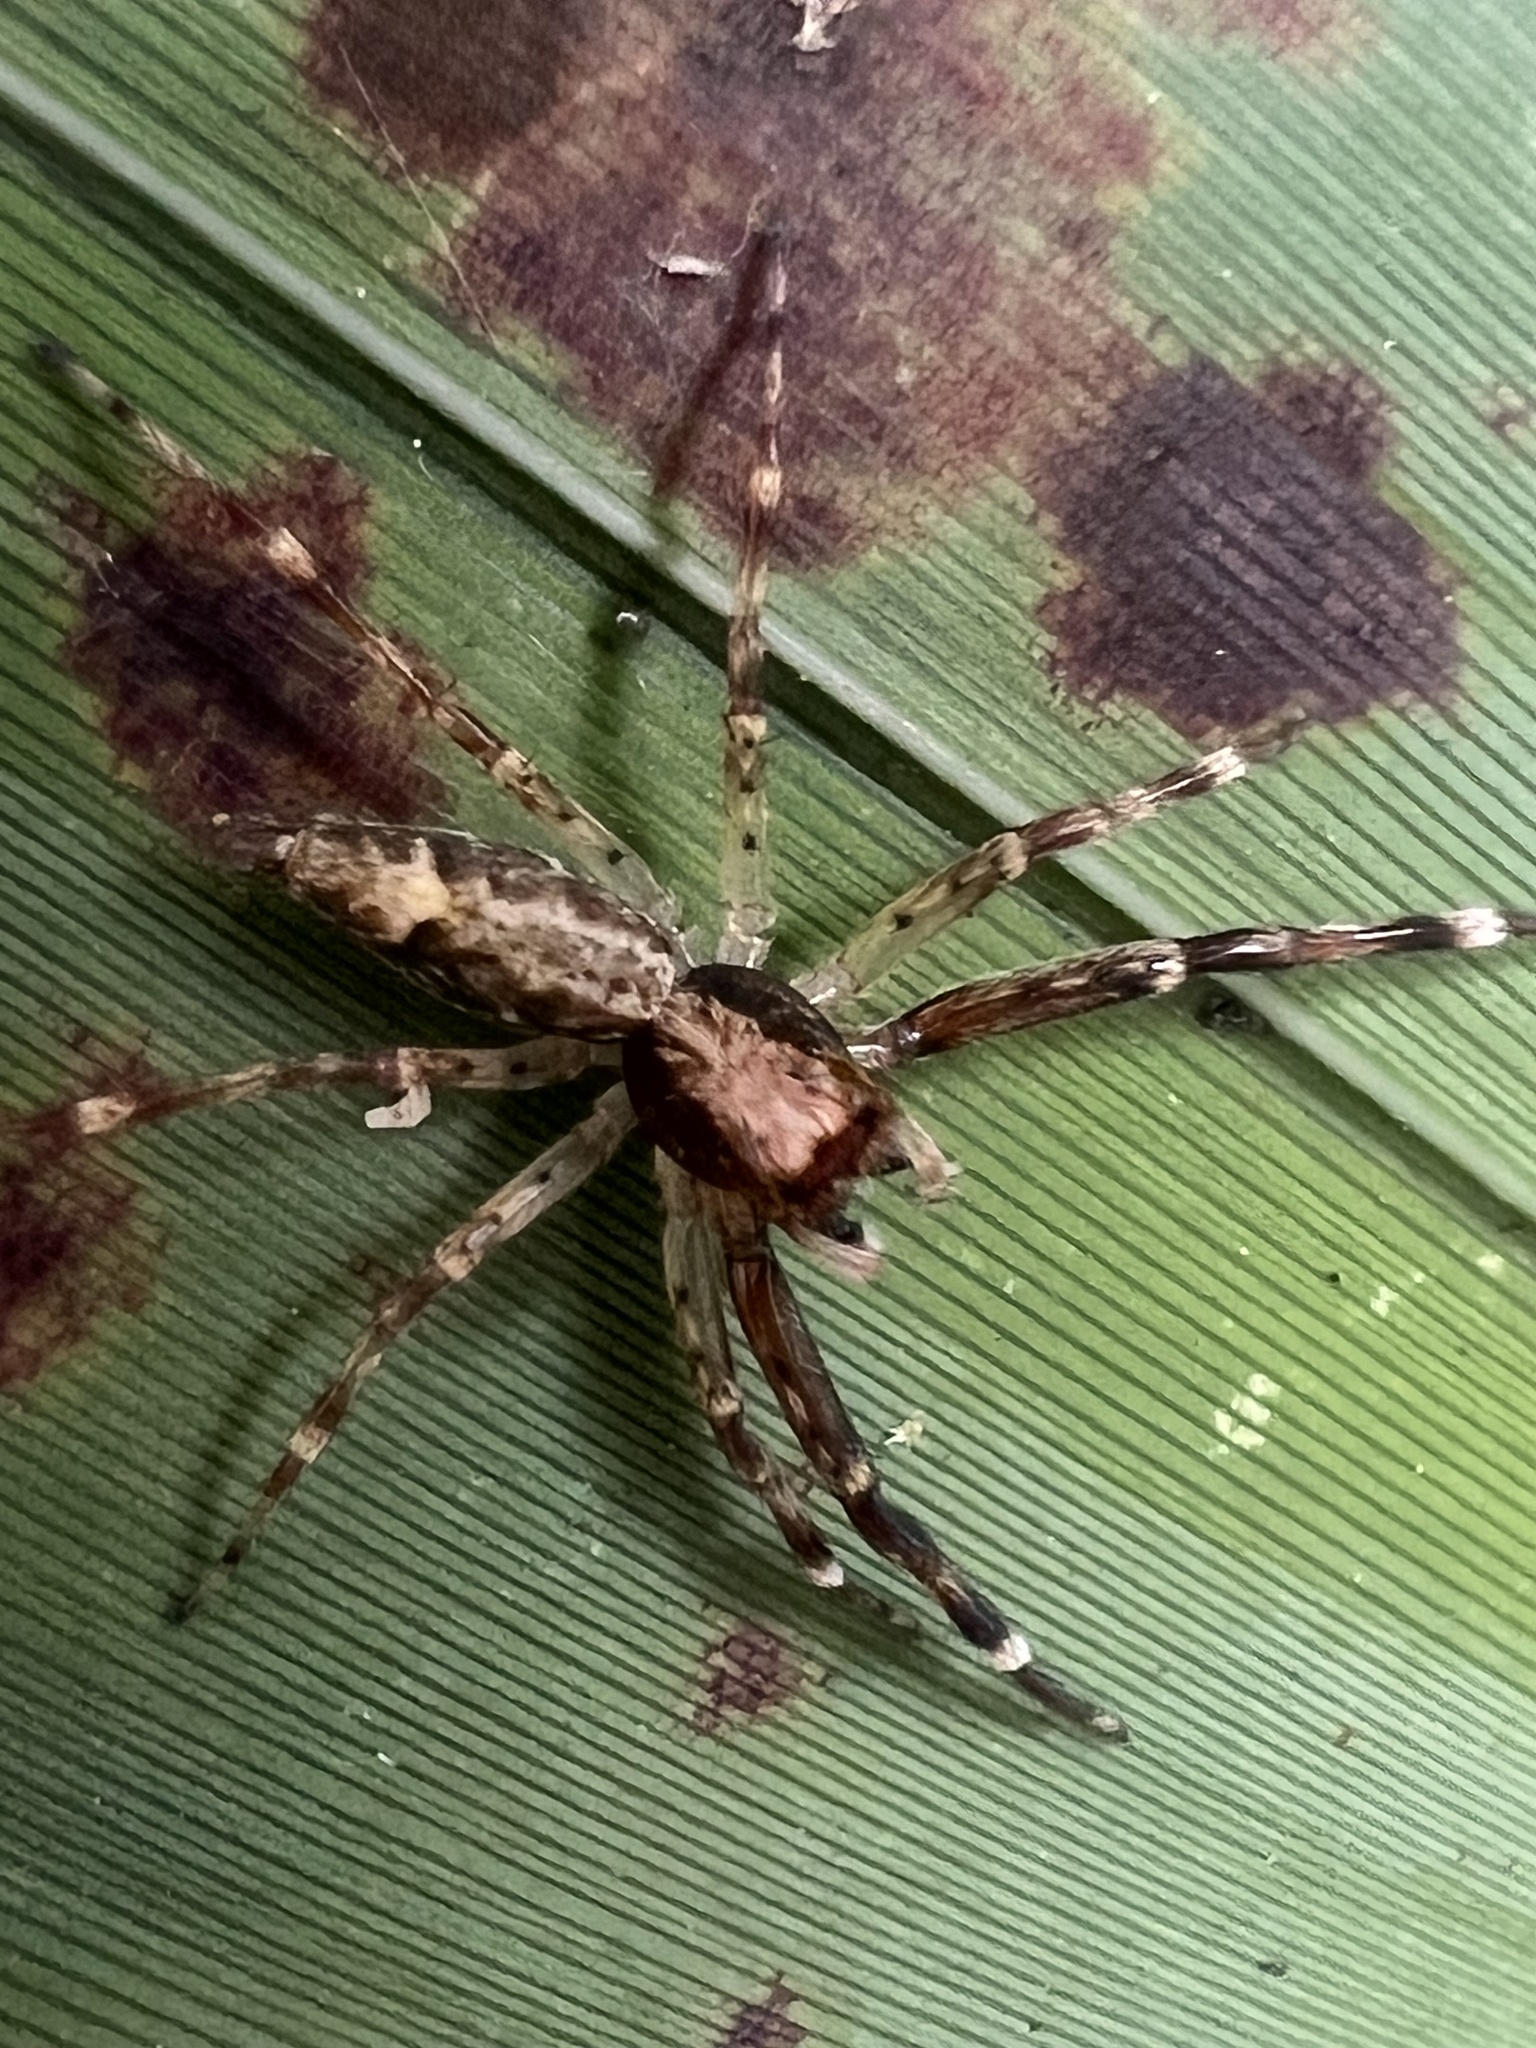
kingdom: Animalia
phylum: Arthropoda
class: Arachnida
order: Araneae
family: Salticidae
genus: Helpis
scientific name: Helpis minitabunda
